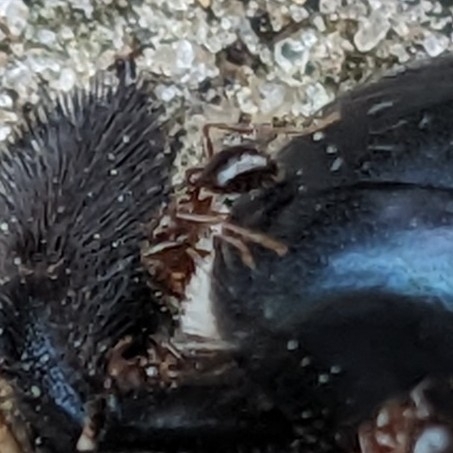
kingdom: Animalia
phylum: Arthropoda
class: Insecta
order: Hymenoptera
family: Formicidae
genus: Solenopsis
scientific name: Solenopsis invicta
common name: Red imported fire ant
